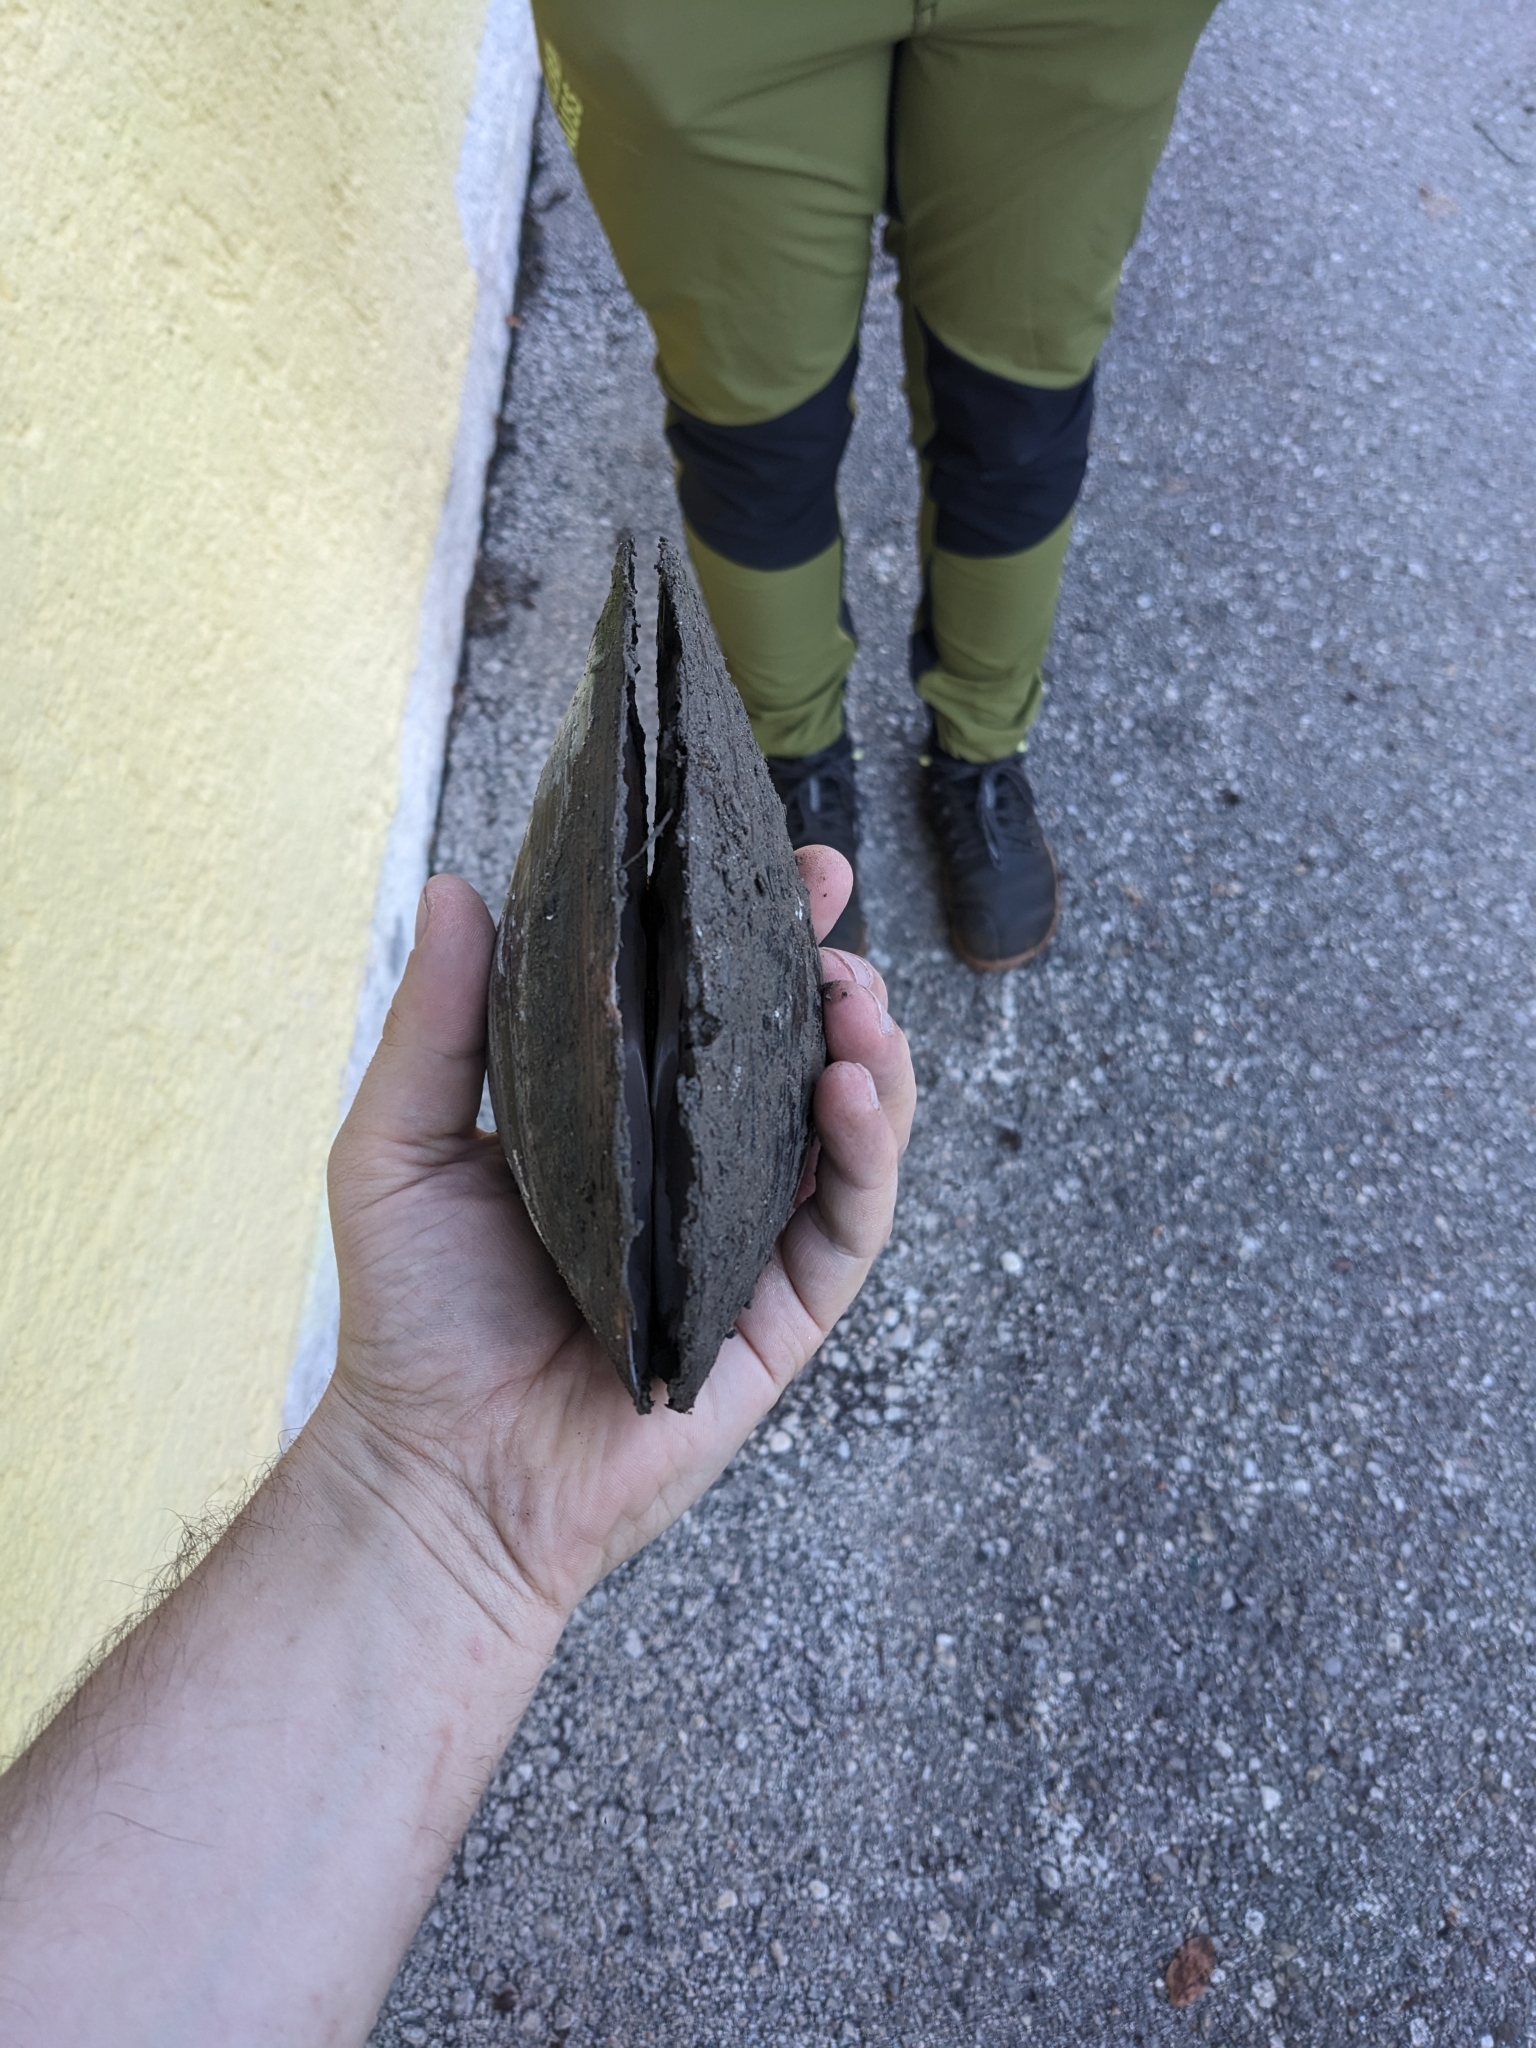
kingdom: Animalia
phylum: Mollusca
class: Bivalvia
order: Unionida
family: Unionidae
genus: Sinanodonta
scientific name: Sinanodonta woodiana
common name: Chinese pond mussel
